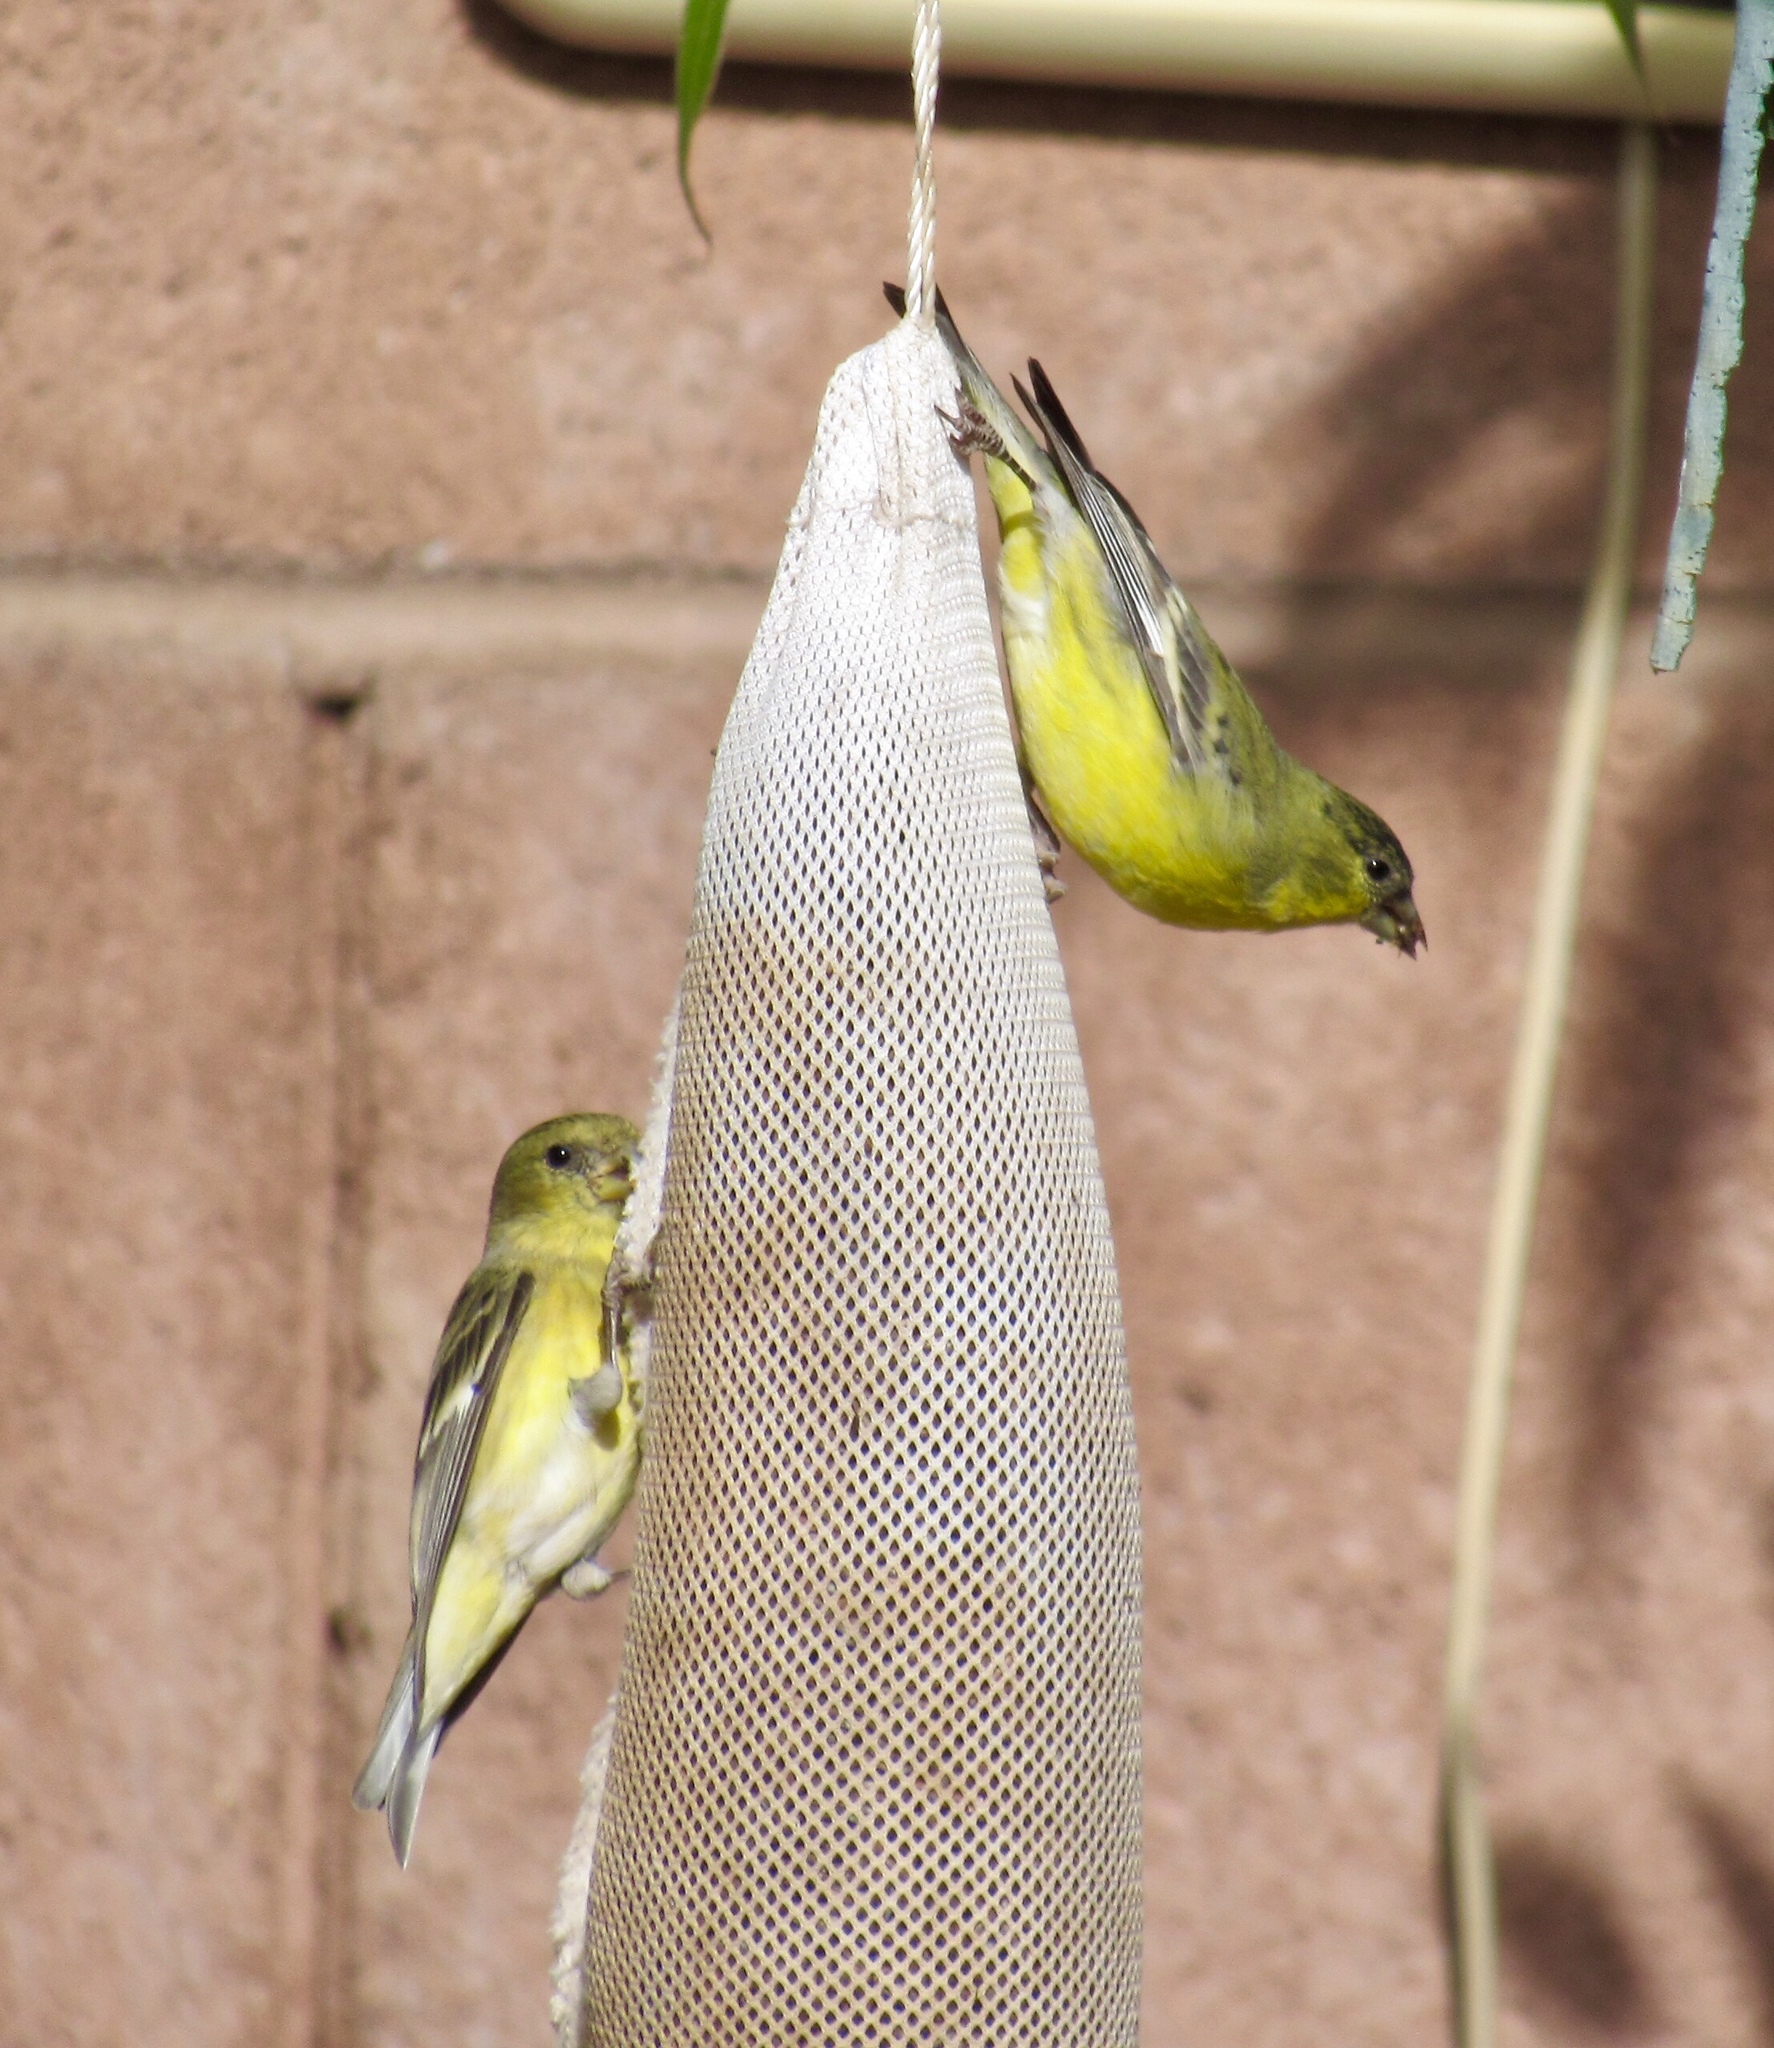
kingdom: Animalia
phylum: Chordata
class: Aves
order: Passeriformes
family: Fringillidae
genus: Spinus
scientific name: Spinus psaltria
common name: Lesser goldfinch
